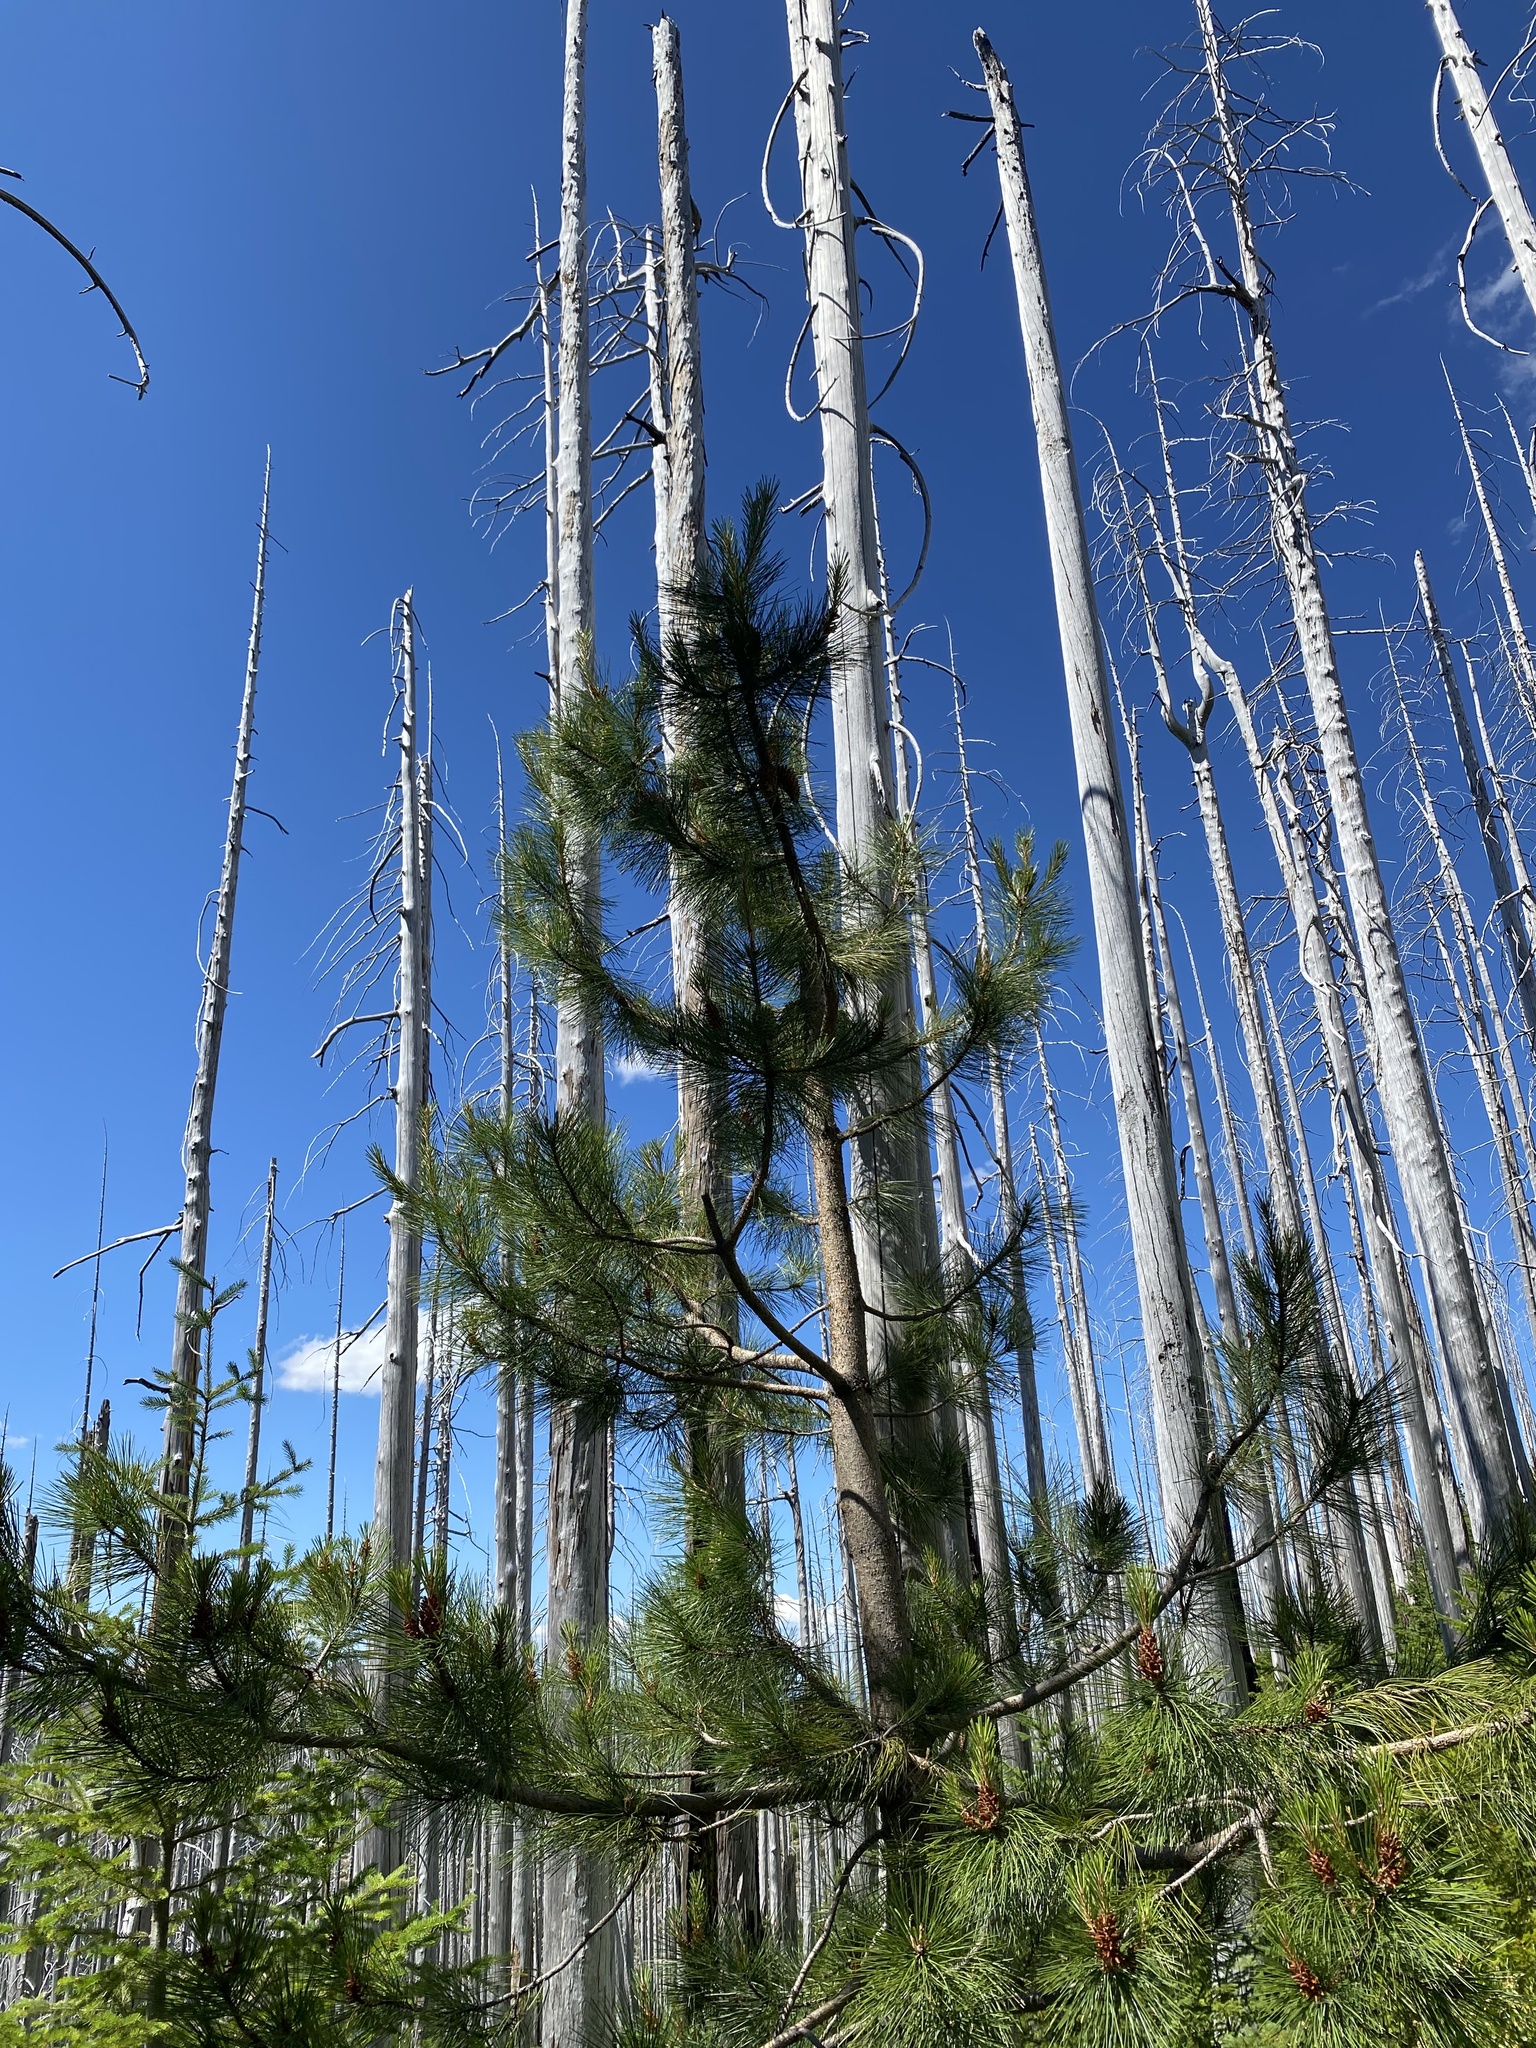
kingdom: Plantae
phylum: Tracheophyta
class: Pinopsida
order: Pinales
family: Pinaceae
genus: Pinus
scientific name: Pinus attenuata
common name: Knobcone pine
